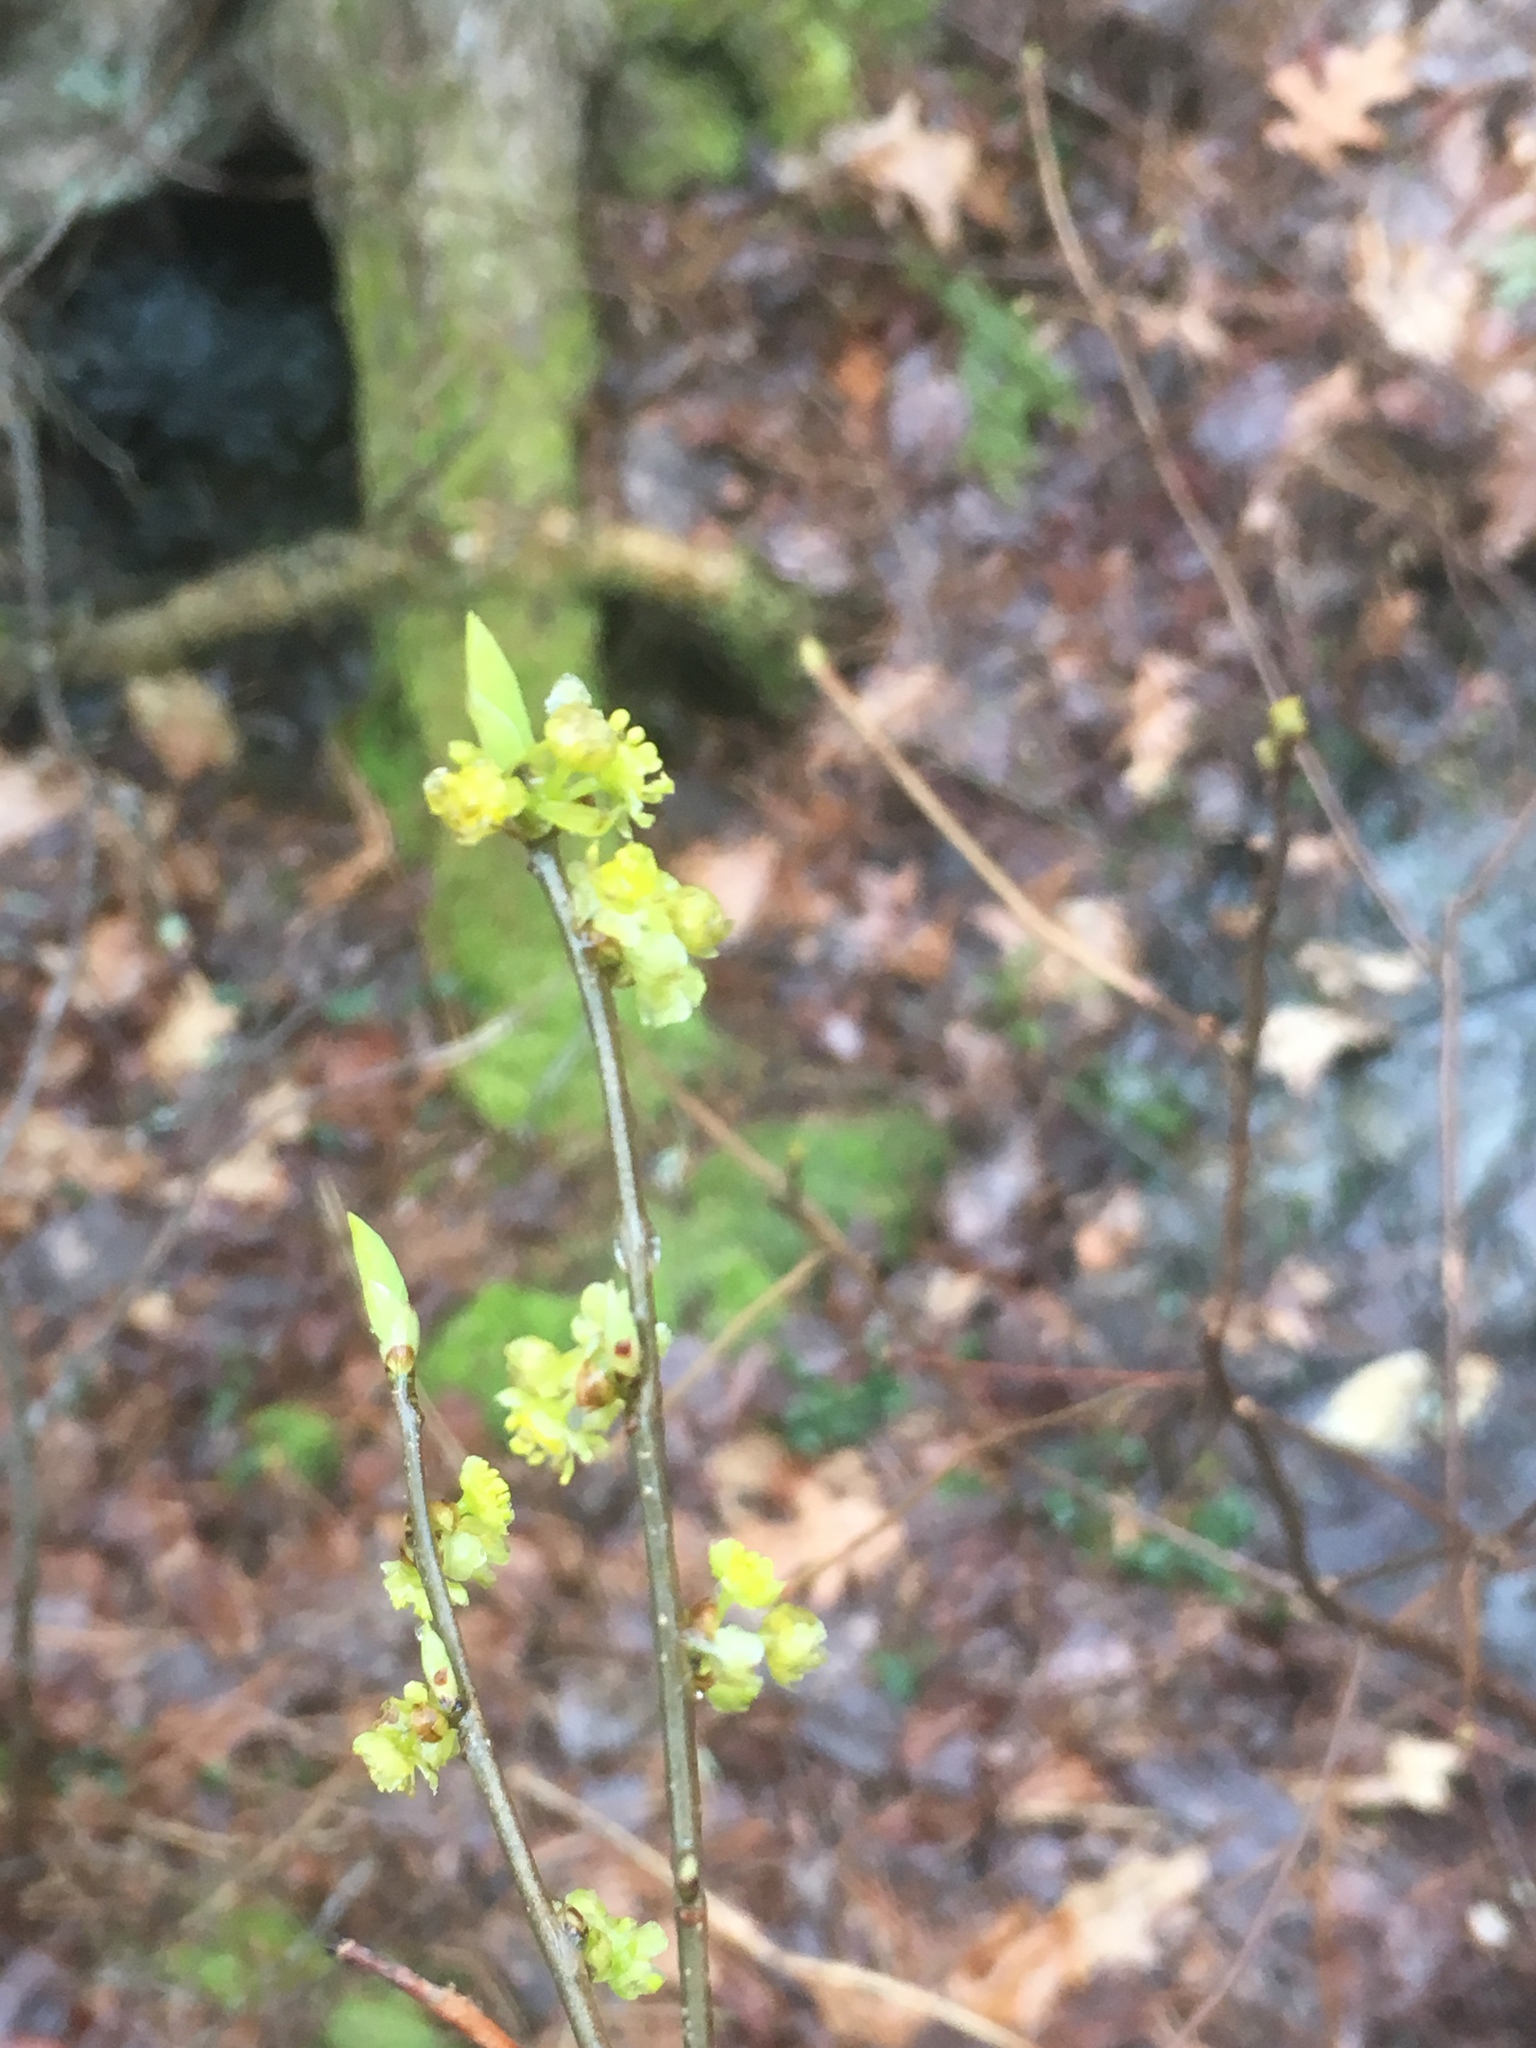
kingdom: Plantae
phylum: Tracheophyta
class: Magnoliopsida
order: Laurales
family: Lauraceae
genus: Lindera
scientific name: Lindera benzoin
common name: Spicebush
